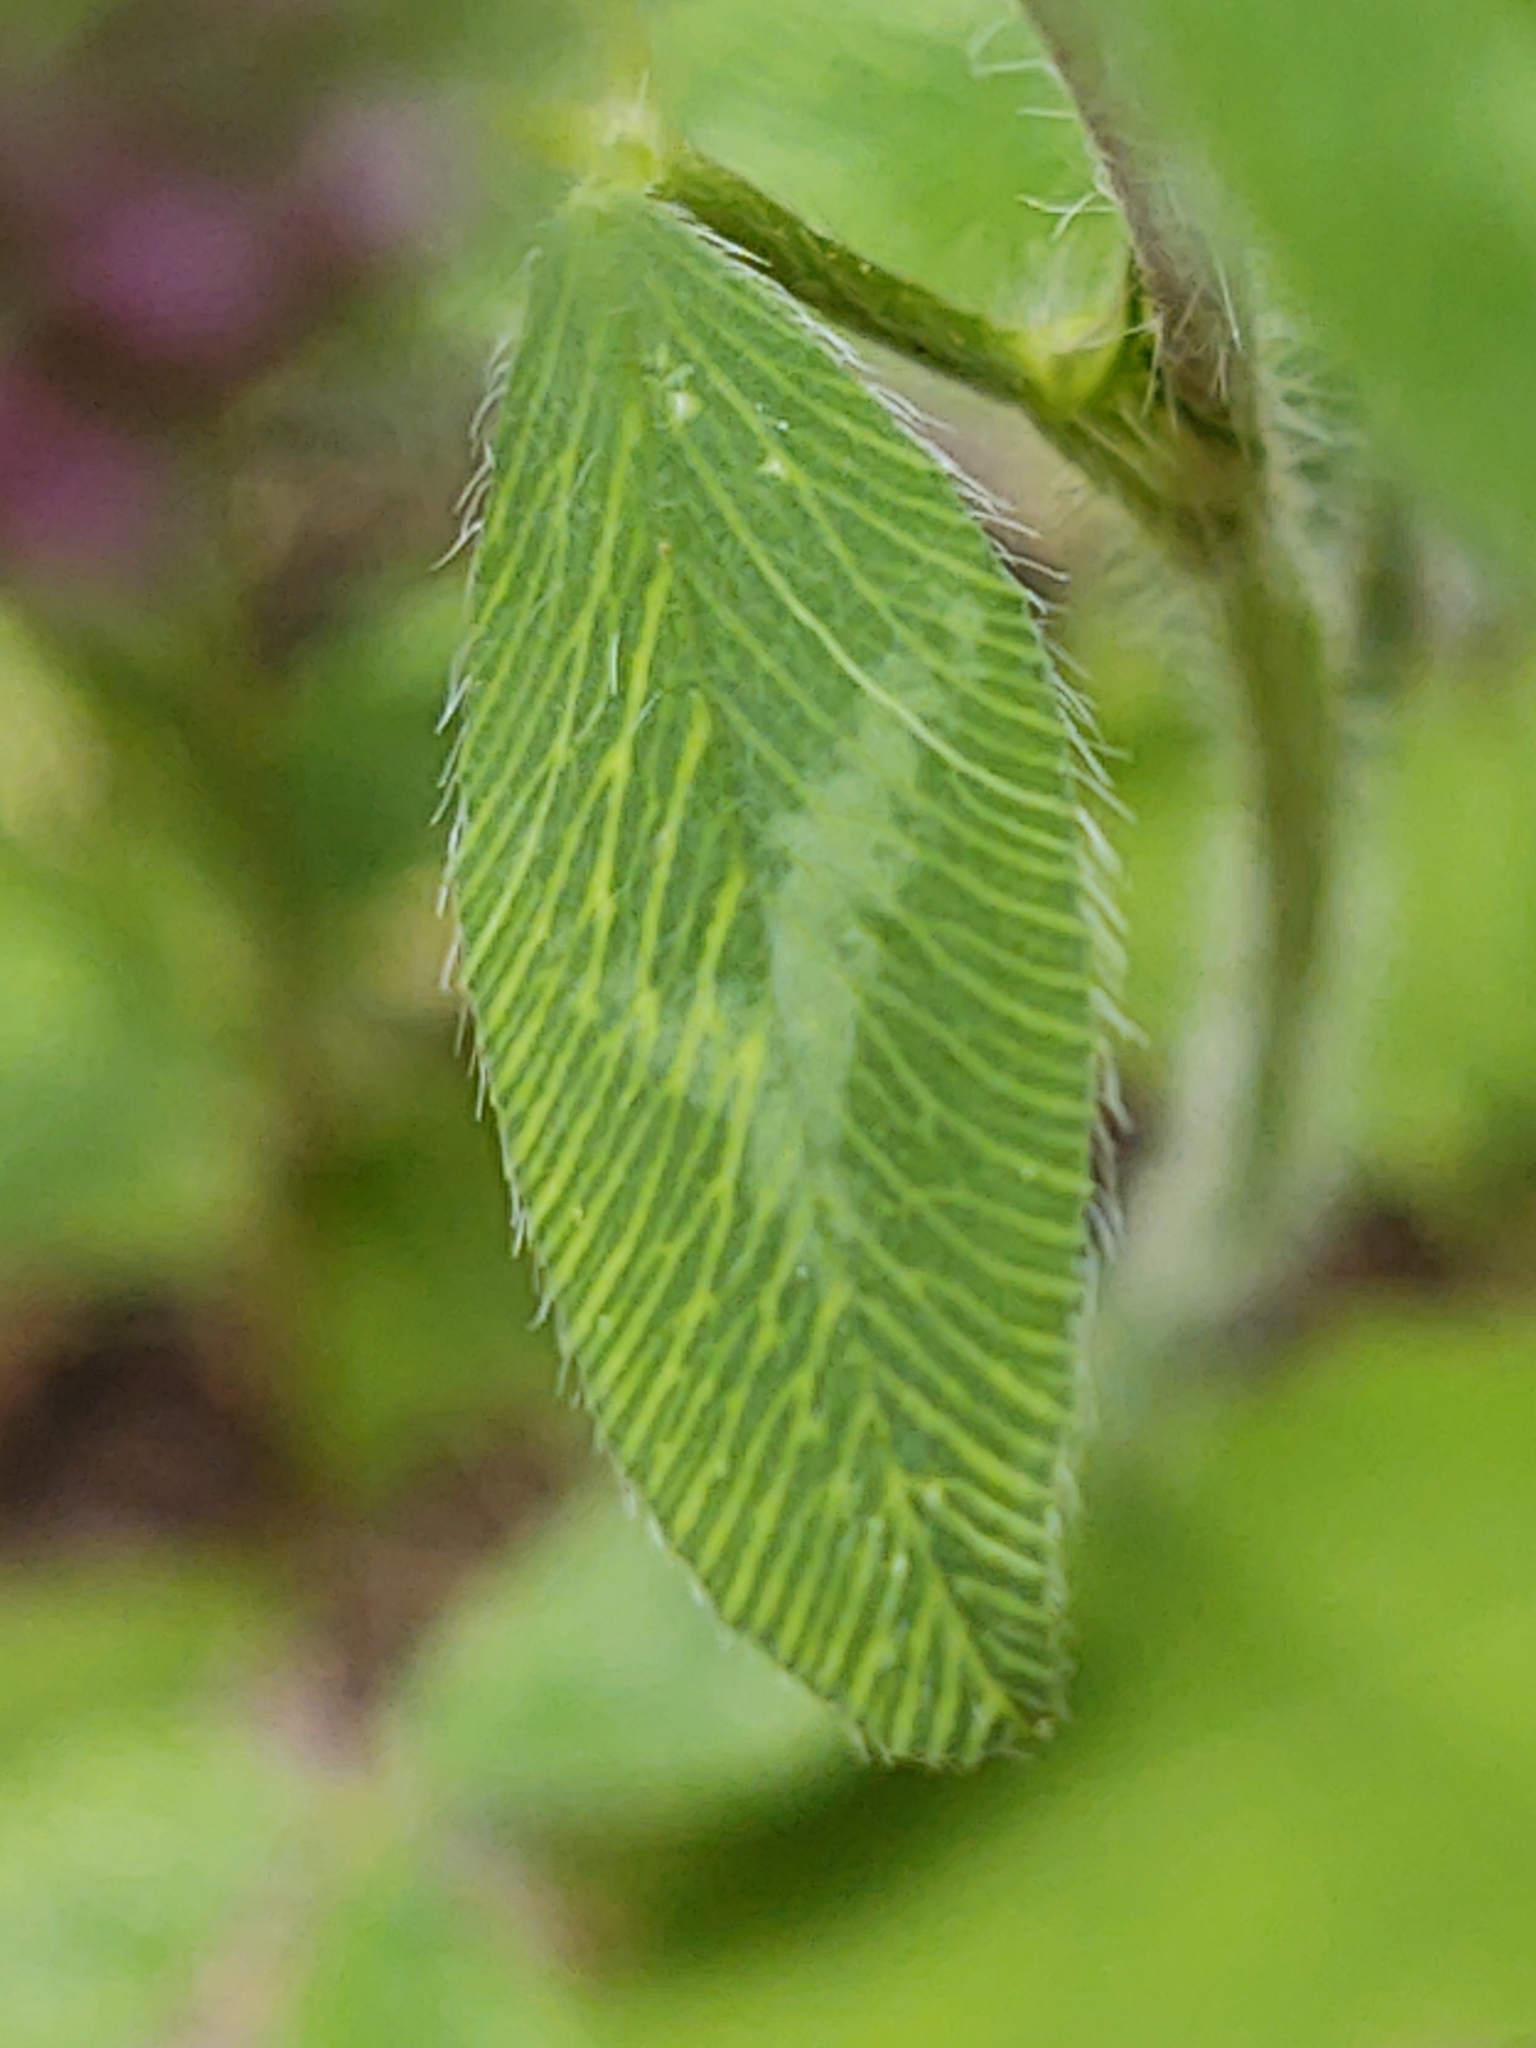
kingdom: Plantae
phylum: Tracheophyta
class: Magnoliopsida
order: Fabales
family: Fabaceae
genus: Trifolium
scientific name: Trifolium pratense
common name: Red clover
